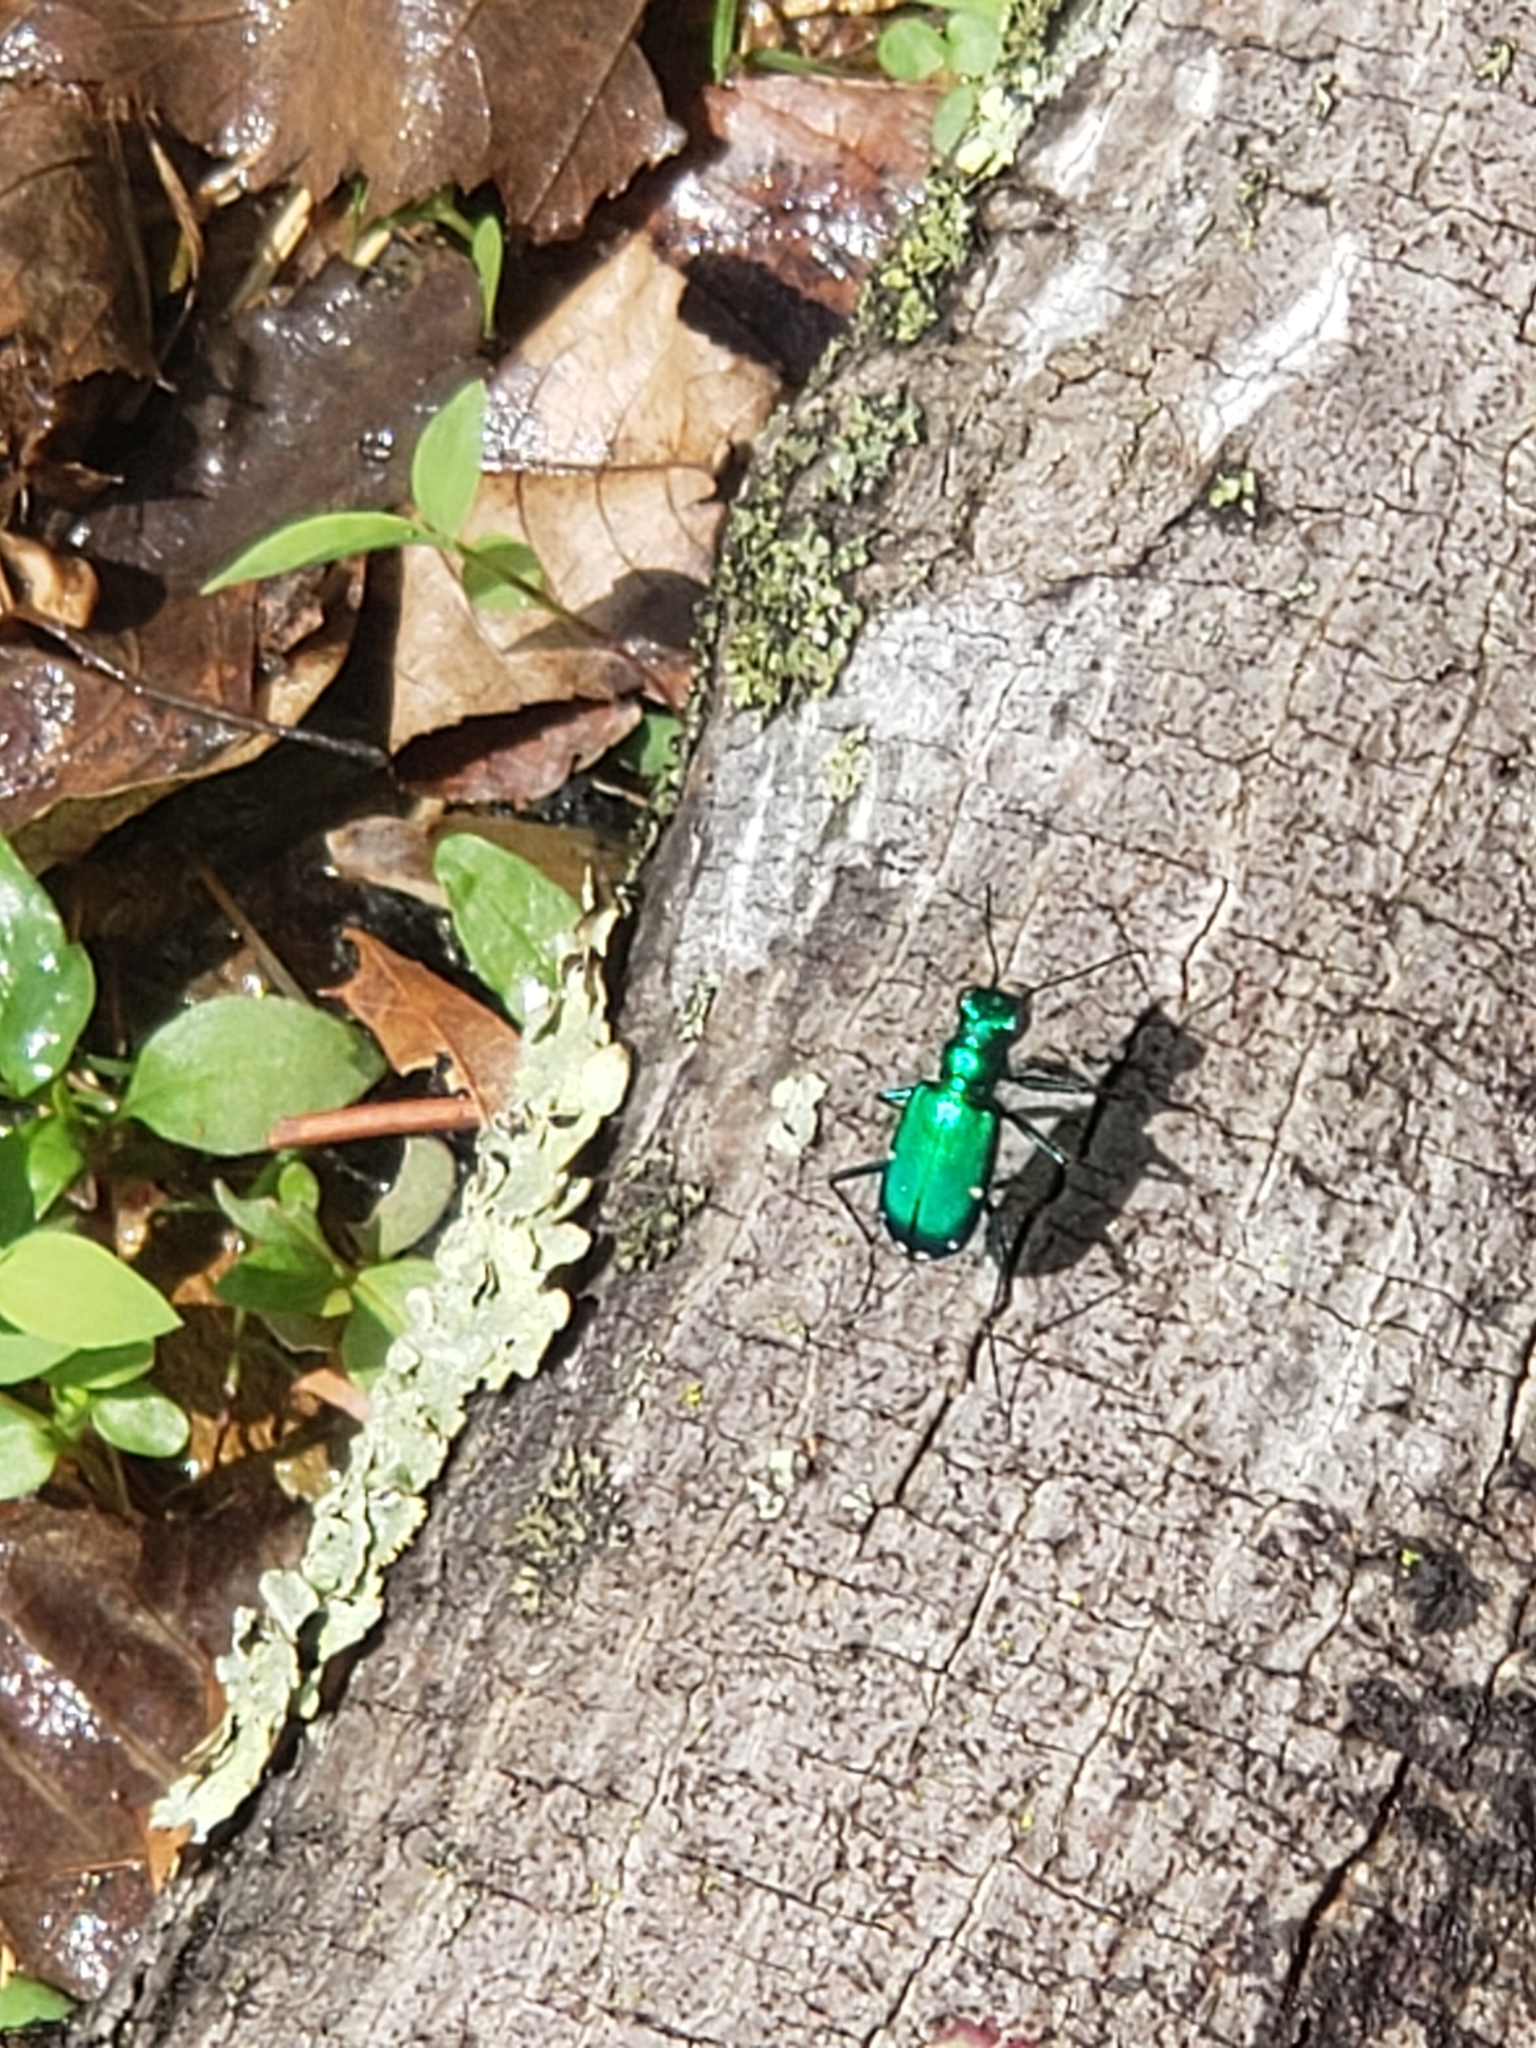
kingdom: Animalia
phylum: Arthropoda
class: Insecta
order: Coleoptera
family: Carabidae
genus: Cicindela
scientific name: Cicindela sexguttata
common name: Six-spotted tiger beetle
